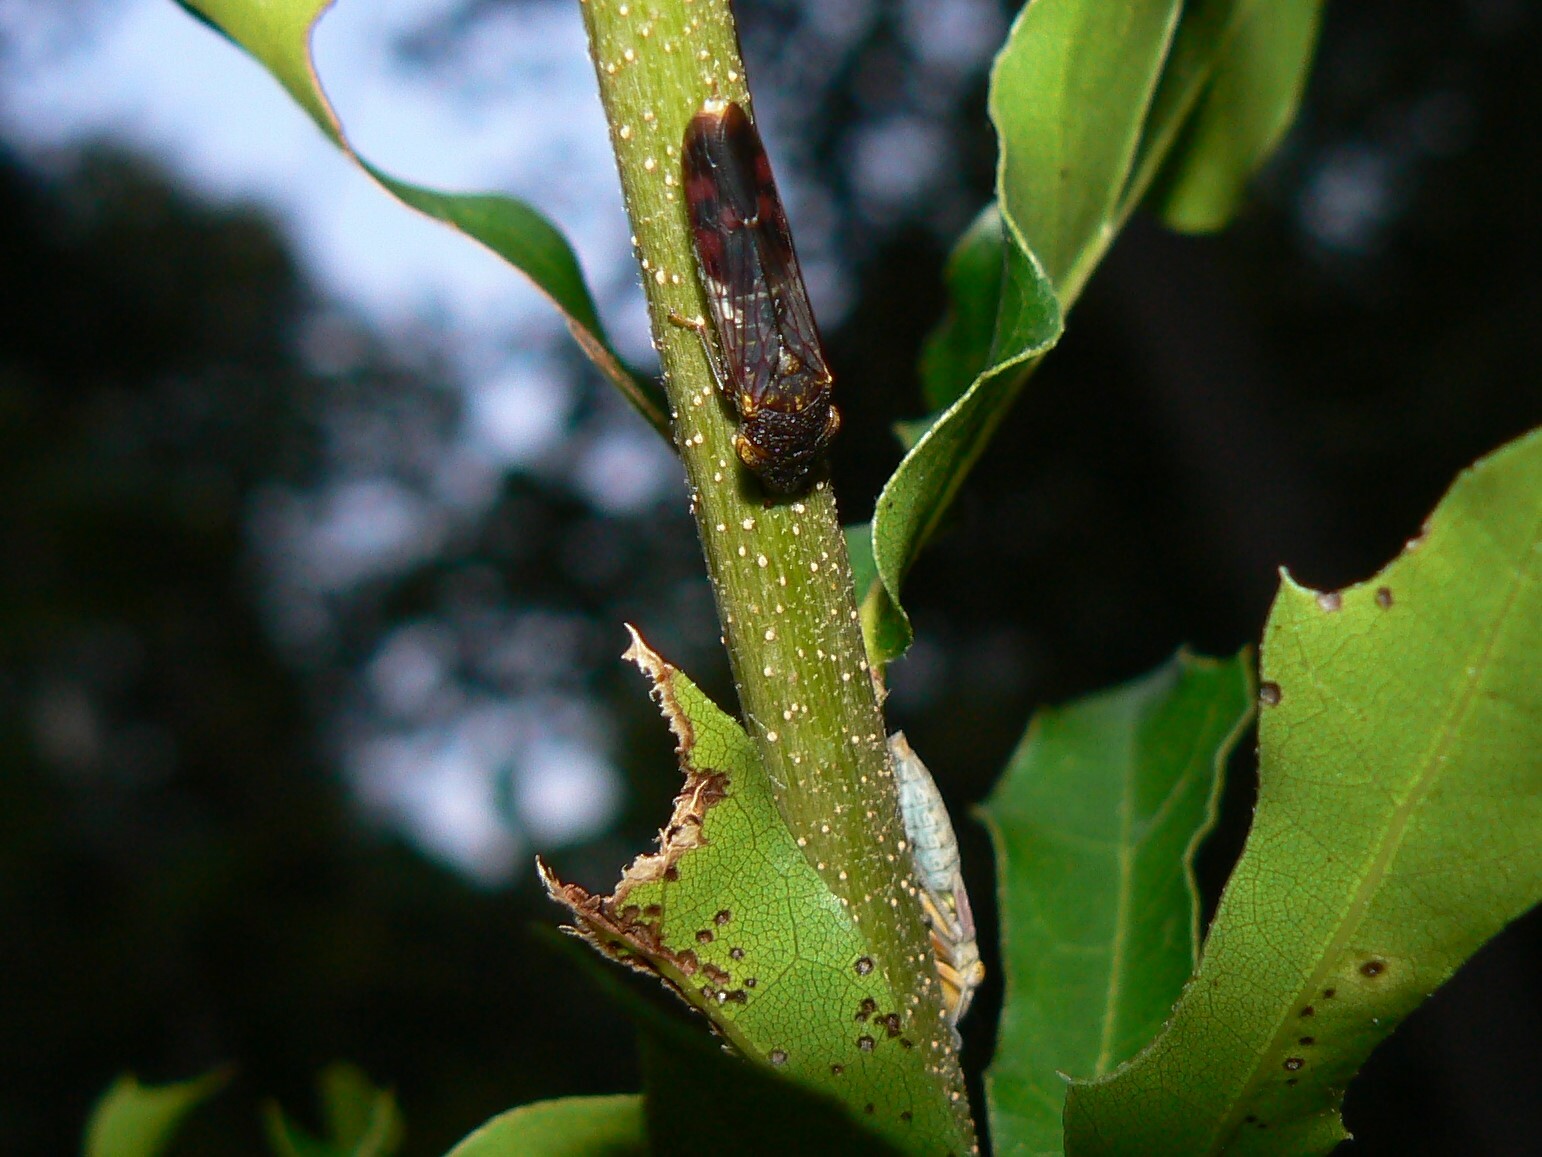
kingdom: Animalia
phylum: Arthropoda
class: Insecta
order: Hemiptera
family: Cicadellidae
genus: Homalodisca
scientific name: Homalodisca vitripennis
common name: Glassy-winged sharpshooter
